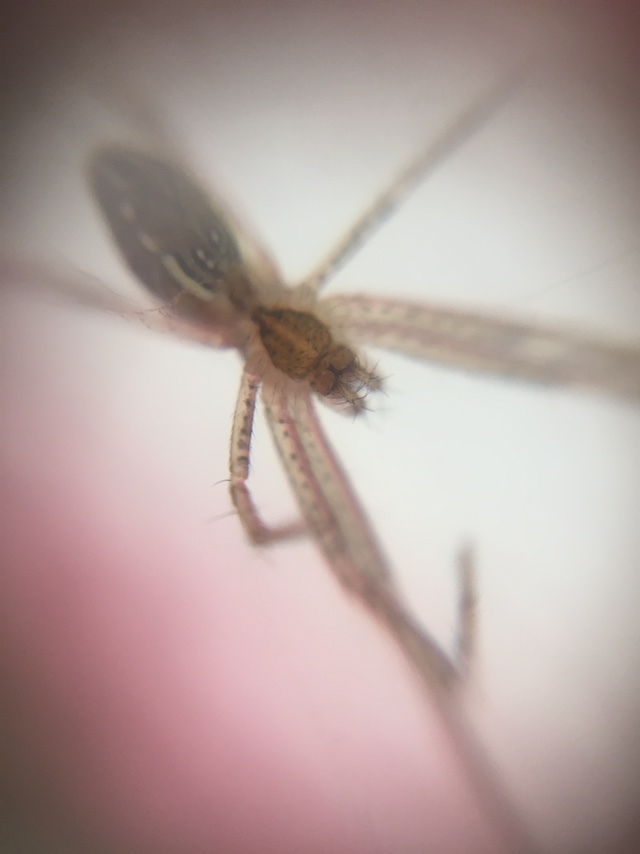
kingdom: Animalia
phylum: Arthropoda
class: Arachnida
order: Araneae
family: Araneidae
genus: Cyrtophora
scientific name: Cyrtophora cicatrosa
